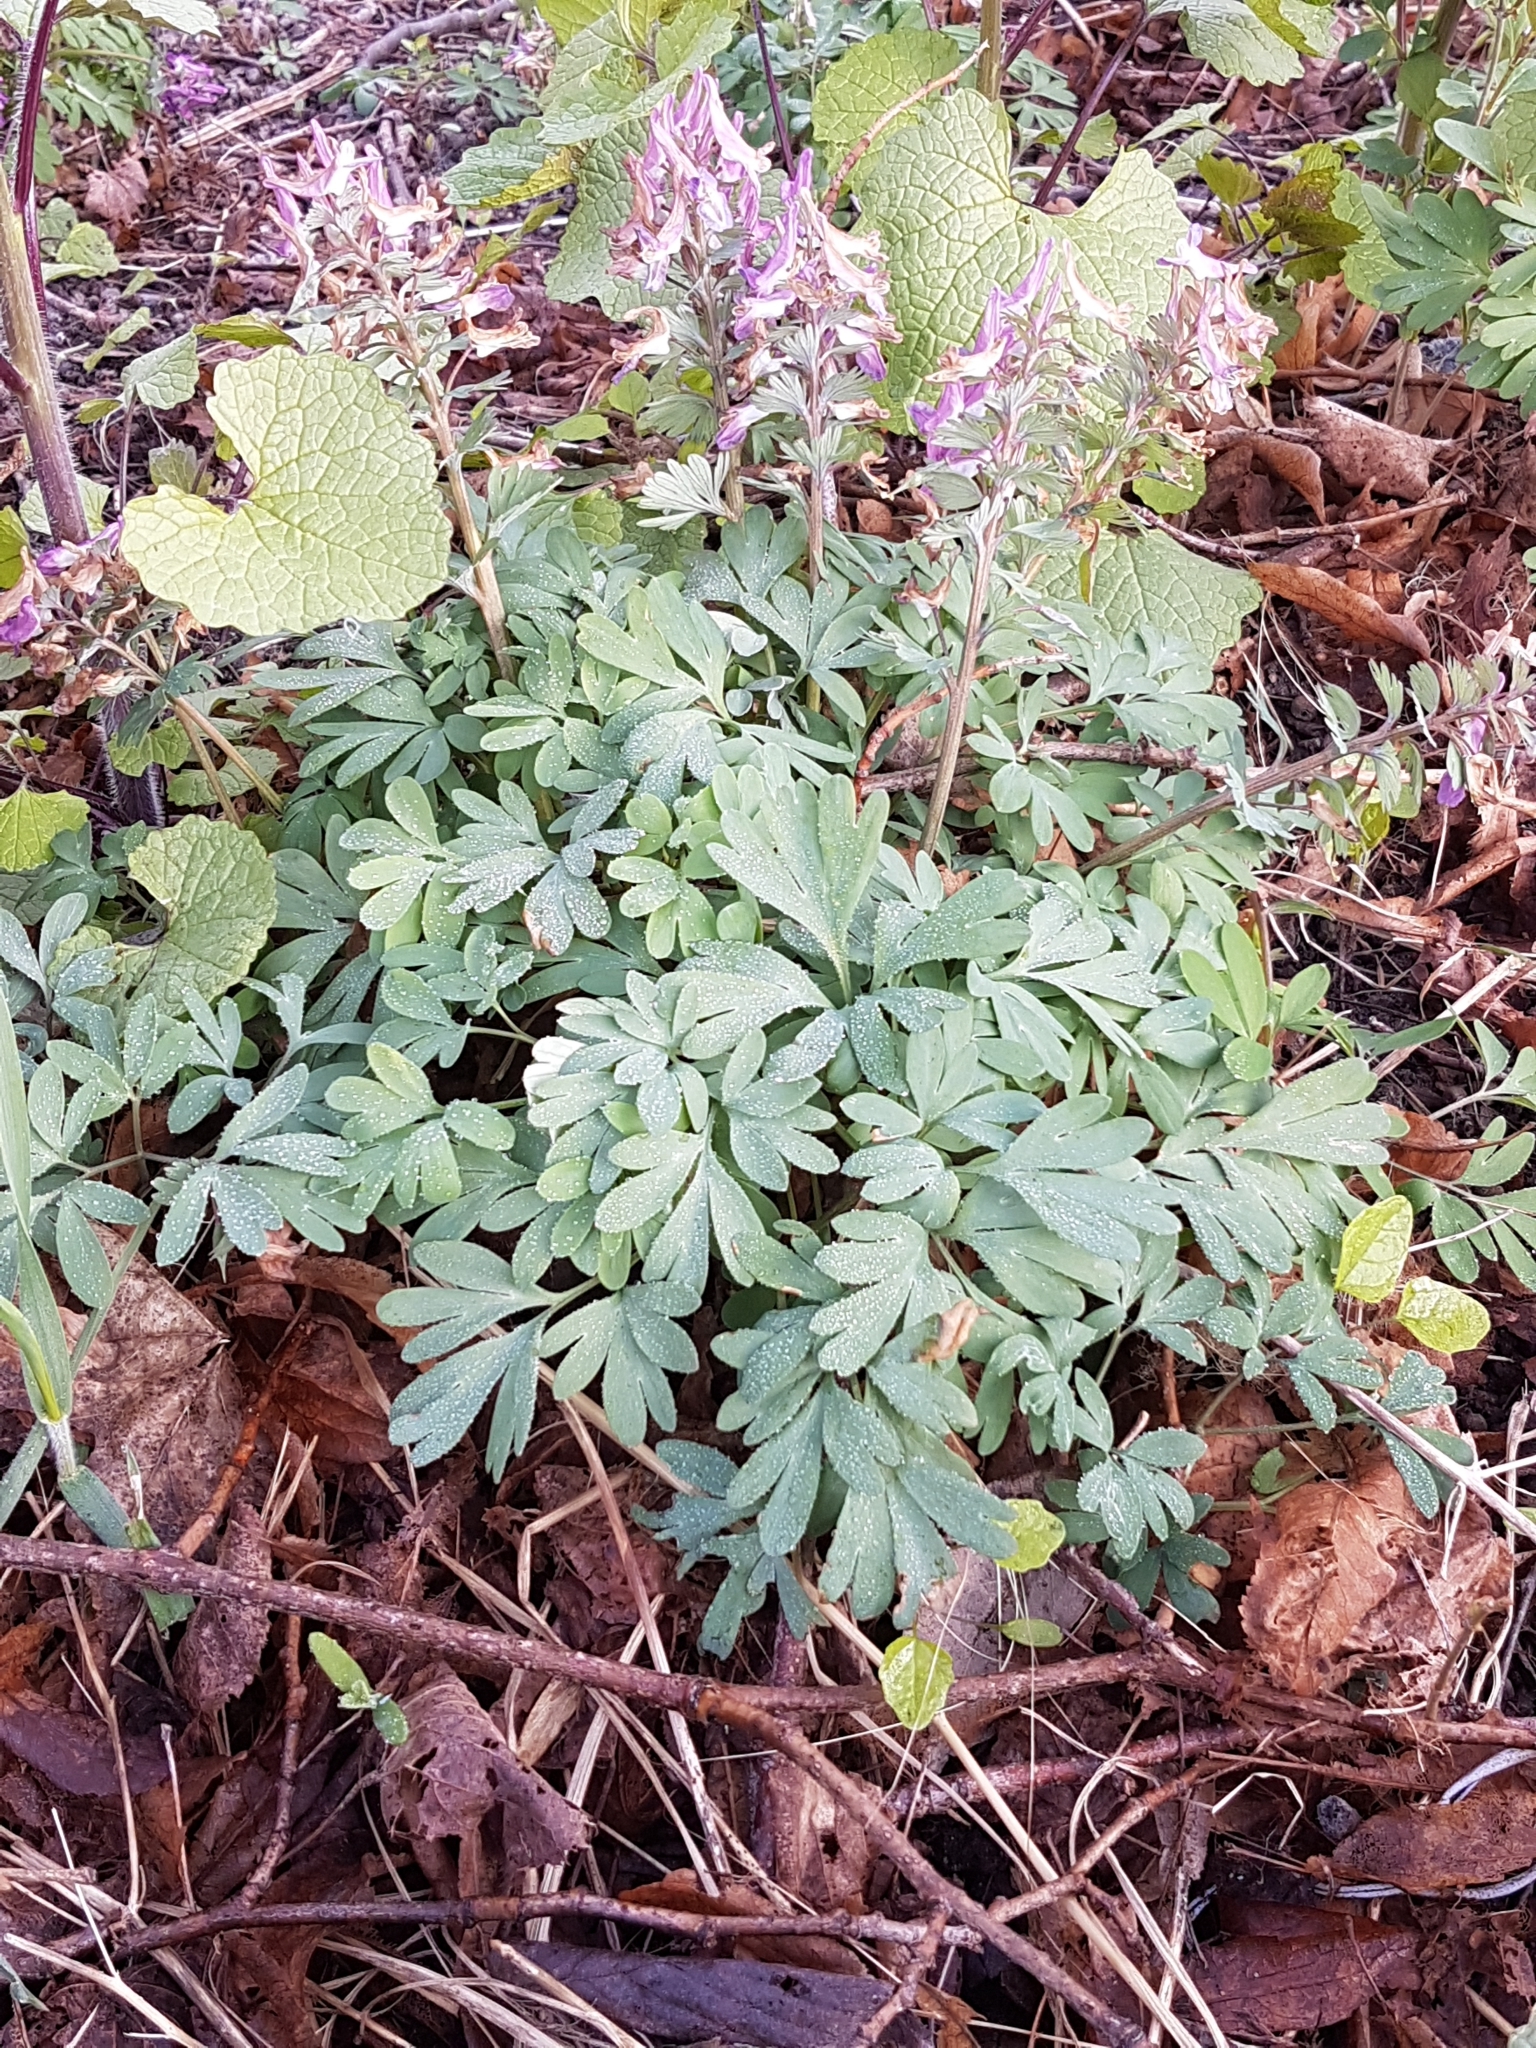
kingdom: Plantae
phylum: Tracheophyta
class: Magnoliopsida
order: Ranunculales
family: Papaveraceae
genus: Corydalis
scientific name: Corydalis solida
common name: Bird-in-a-bush
